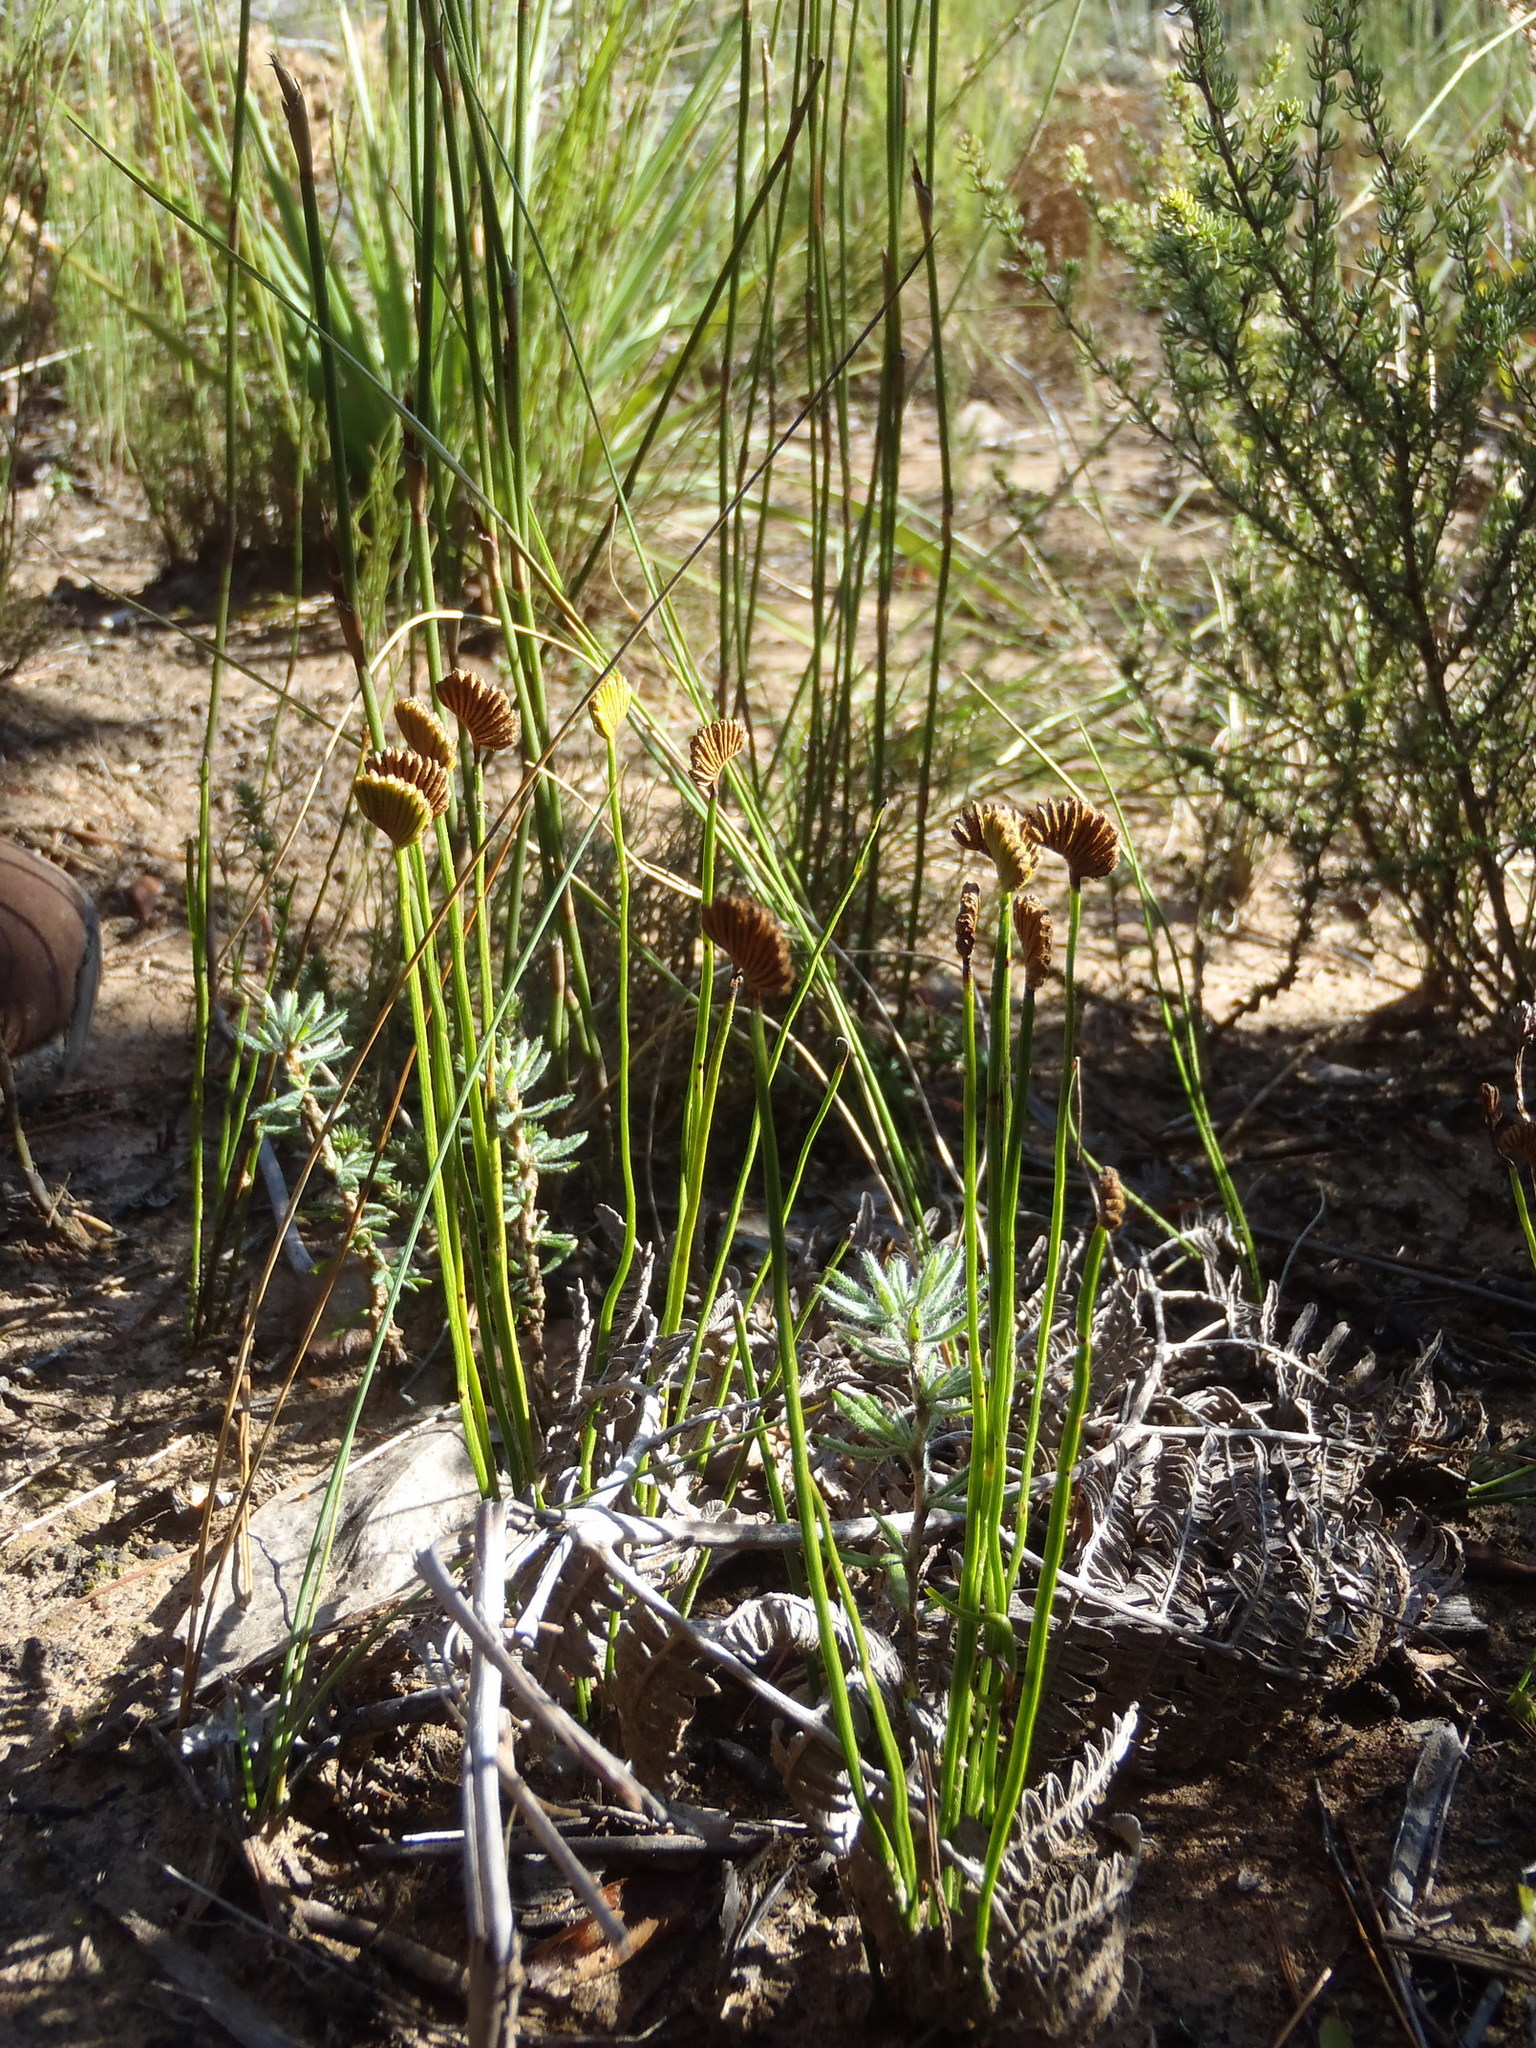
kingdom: Plantae
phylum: Tracheophyta
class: Polypodiopsida
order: Schizaeales
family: Schizaeaceae
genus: Schizaea
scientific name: Schizaea pectinata
